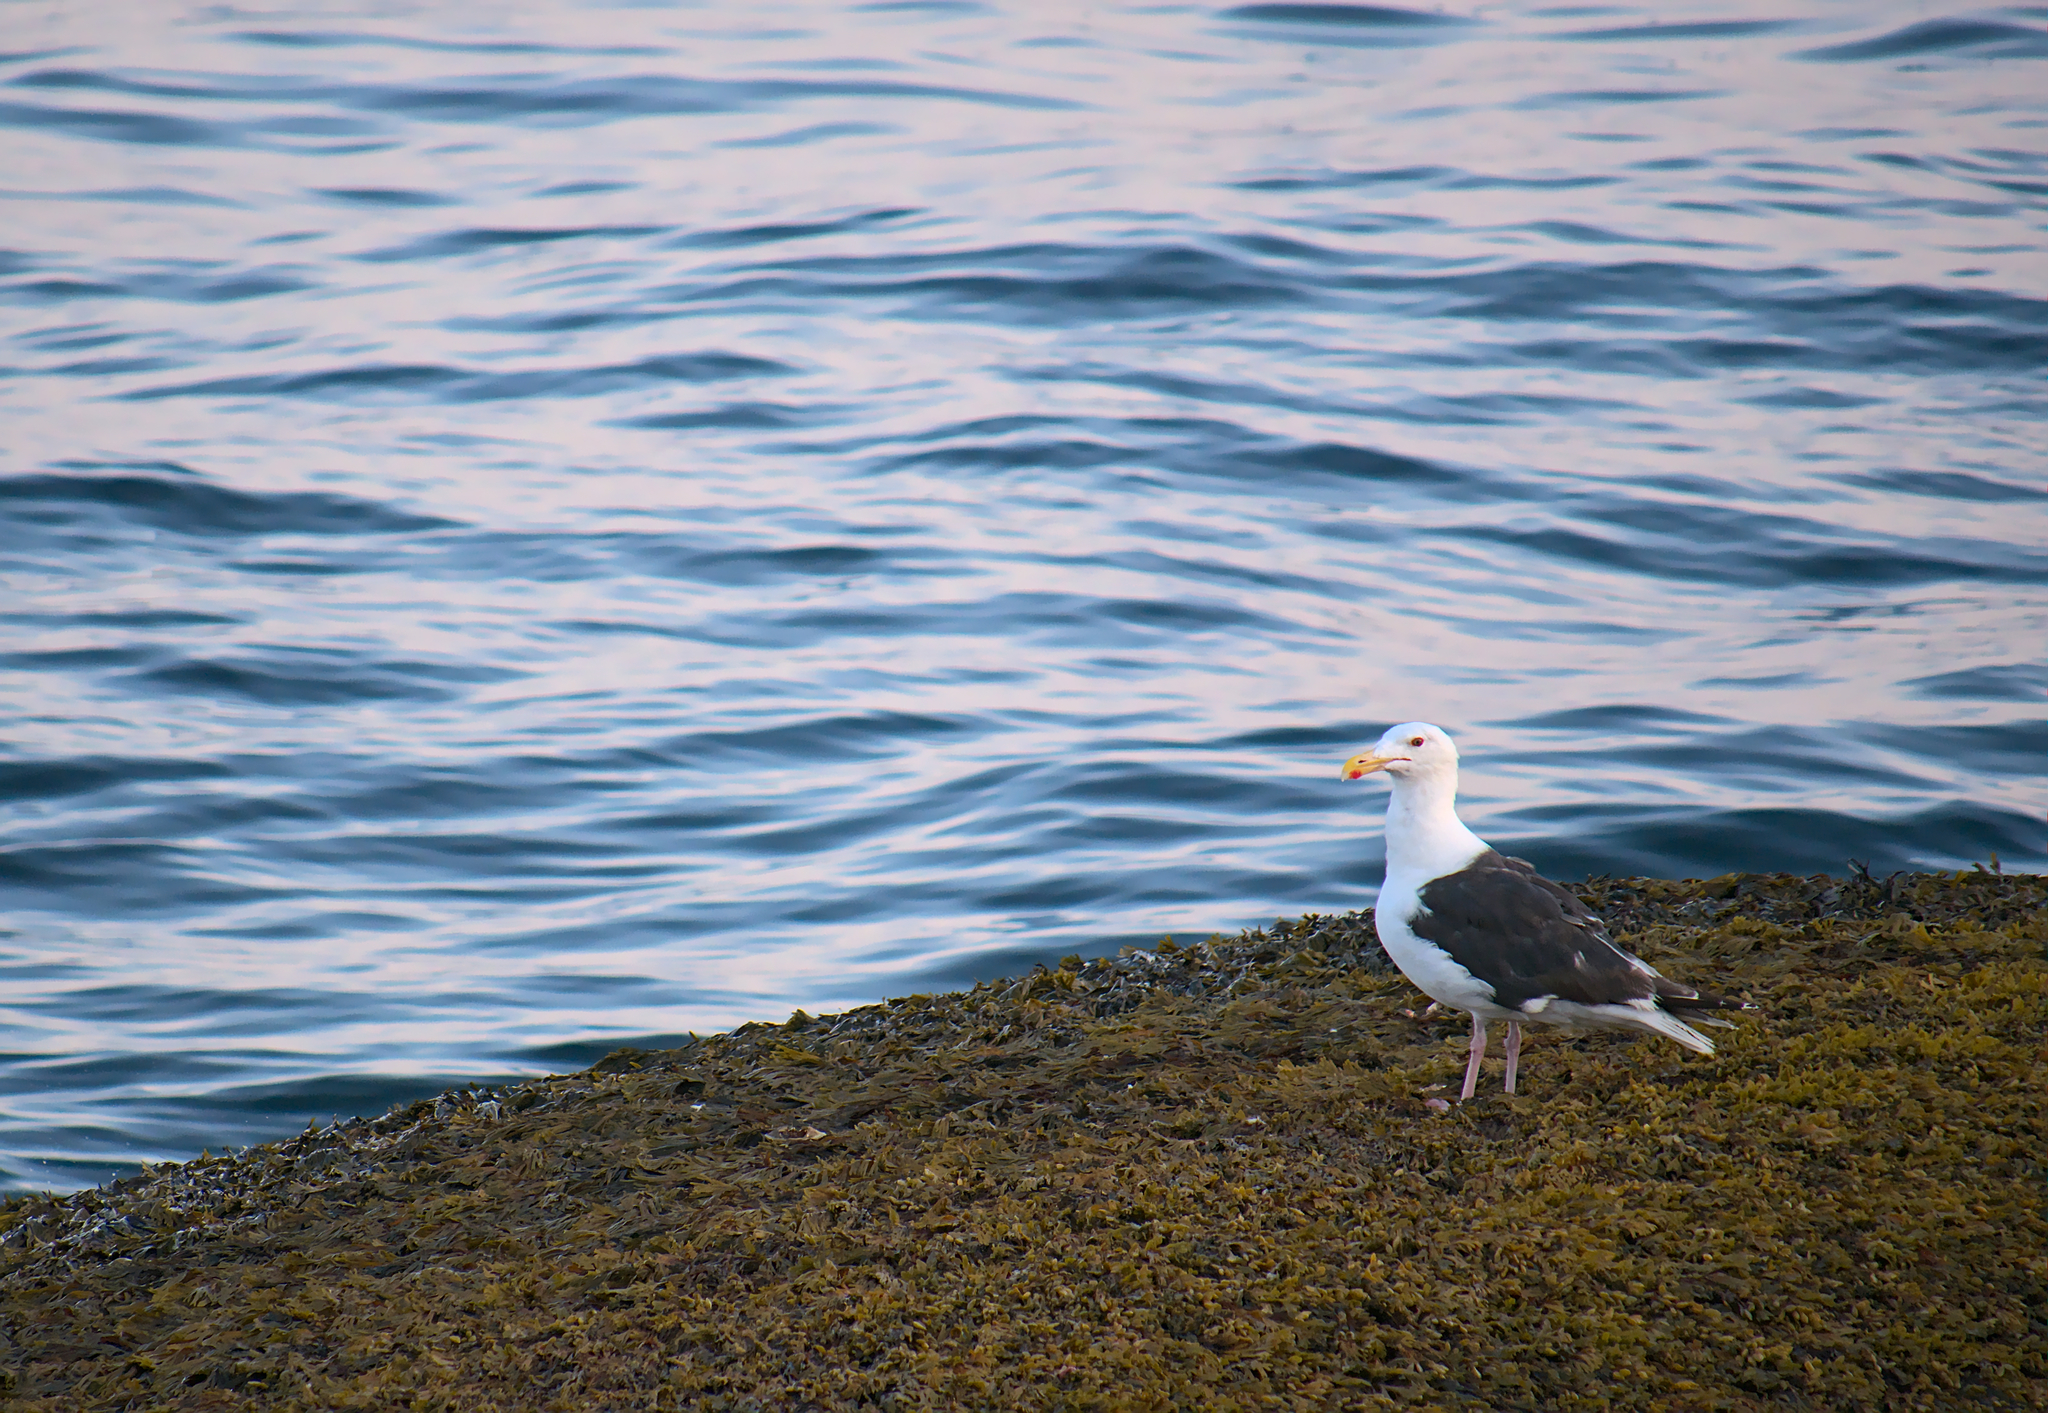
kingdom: Animalia
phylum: Chordata
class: Aves
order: Charadriiformes
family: Laridae
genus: Larus
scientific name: Larus marinus
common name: Great black-backed gull
